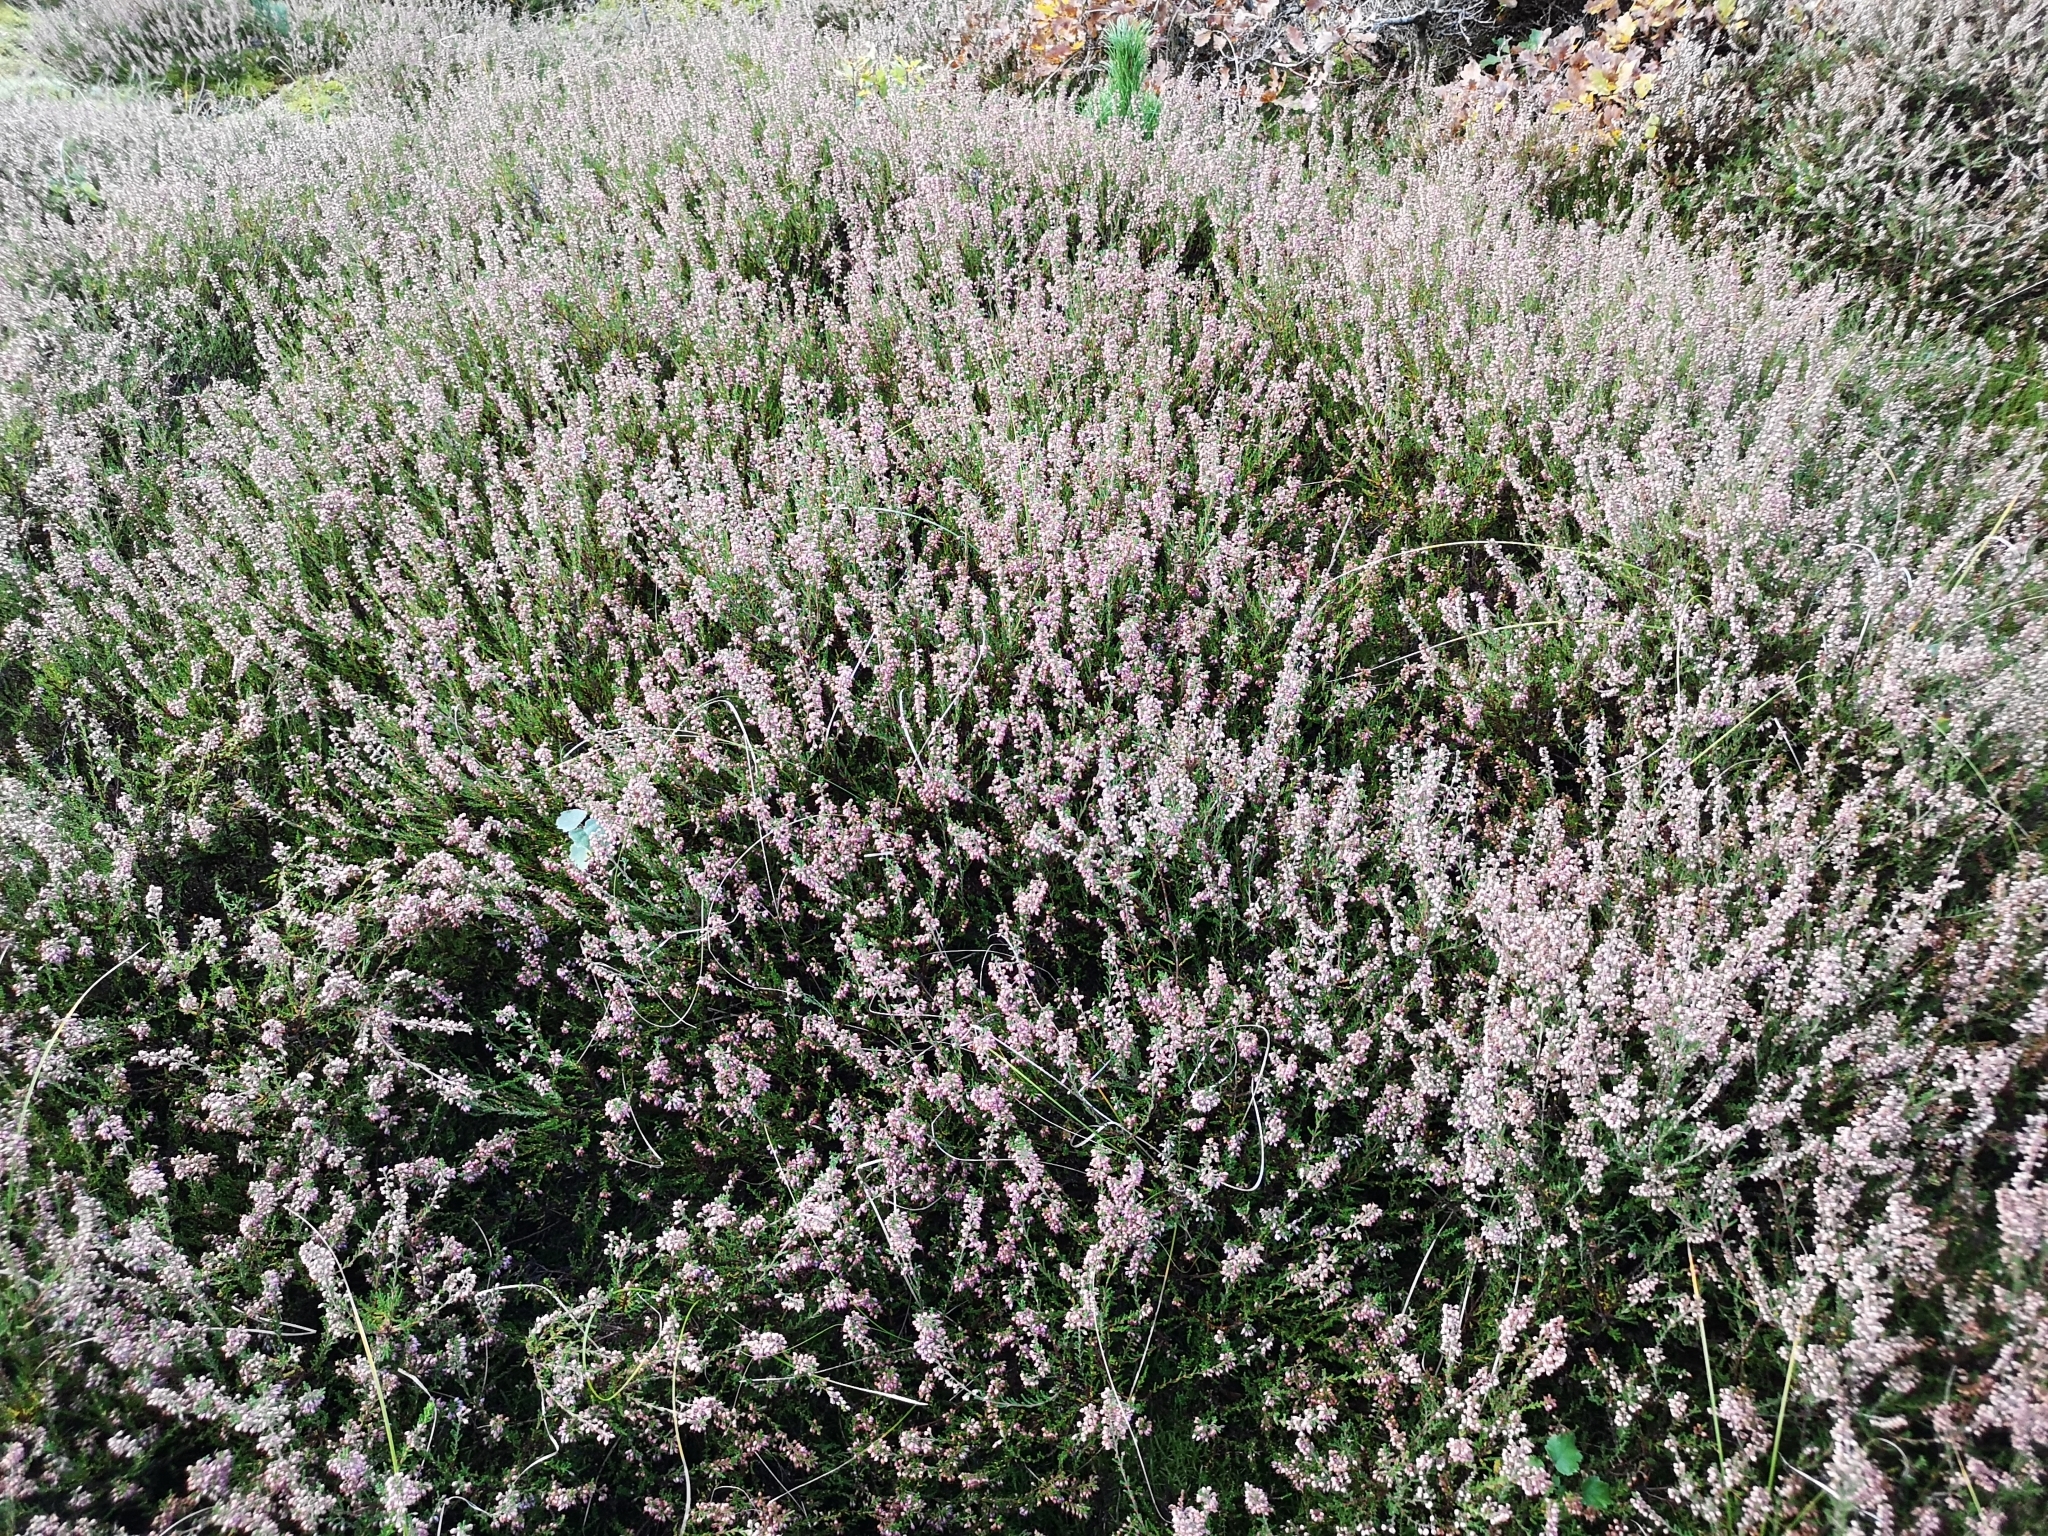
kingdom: Plantae
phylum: Tracheophyta
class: Magnoliopsida
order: Ericales
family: Ericaceae
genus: Calluna
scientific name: Calluna vulgaris
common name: Heather
